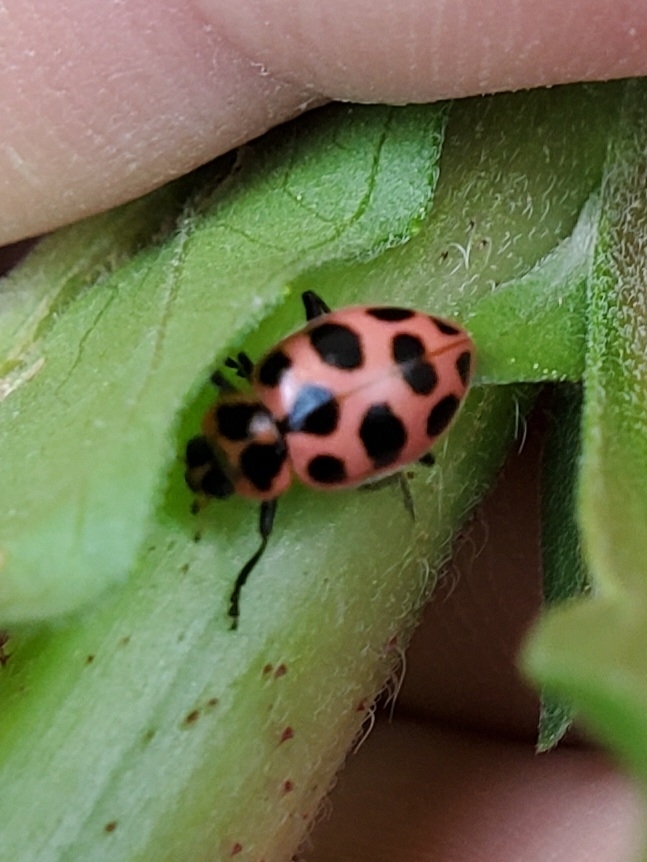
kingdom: Animalia
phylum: Arthropoda
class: Insecta
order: Coleoptera
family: Coccinellidae
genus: Coleomegilla
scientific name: Coleomegilla maculata
